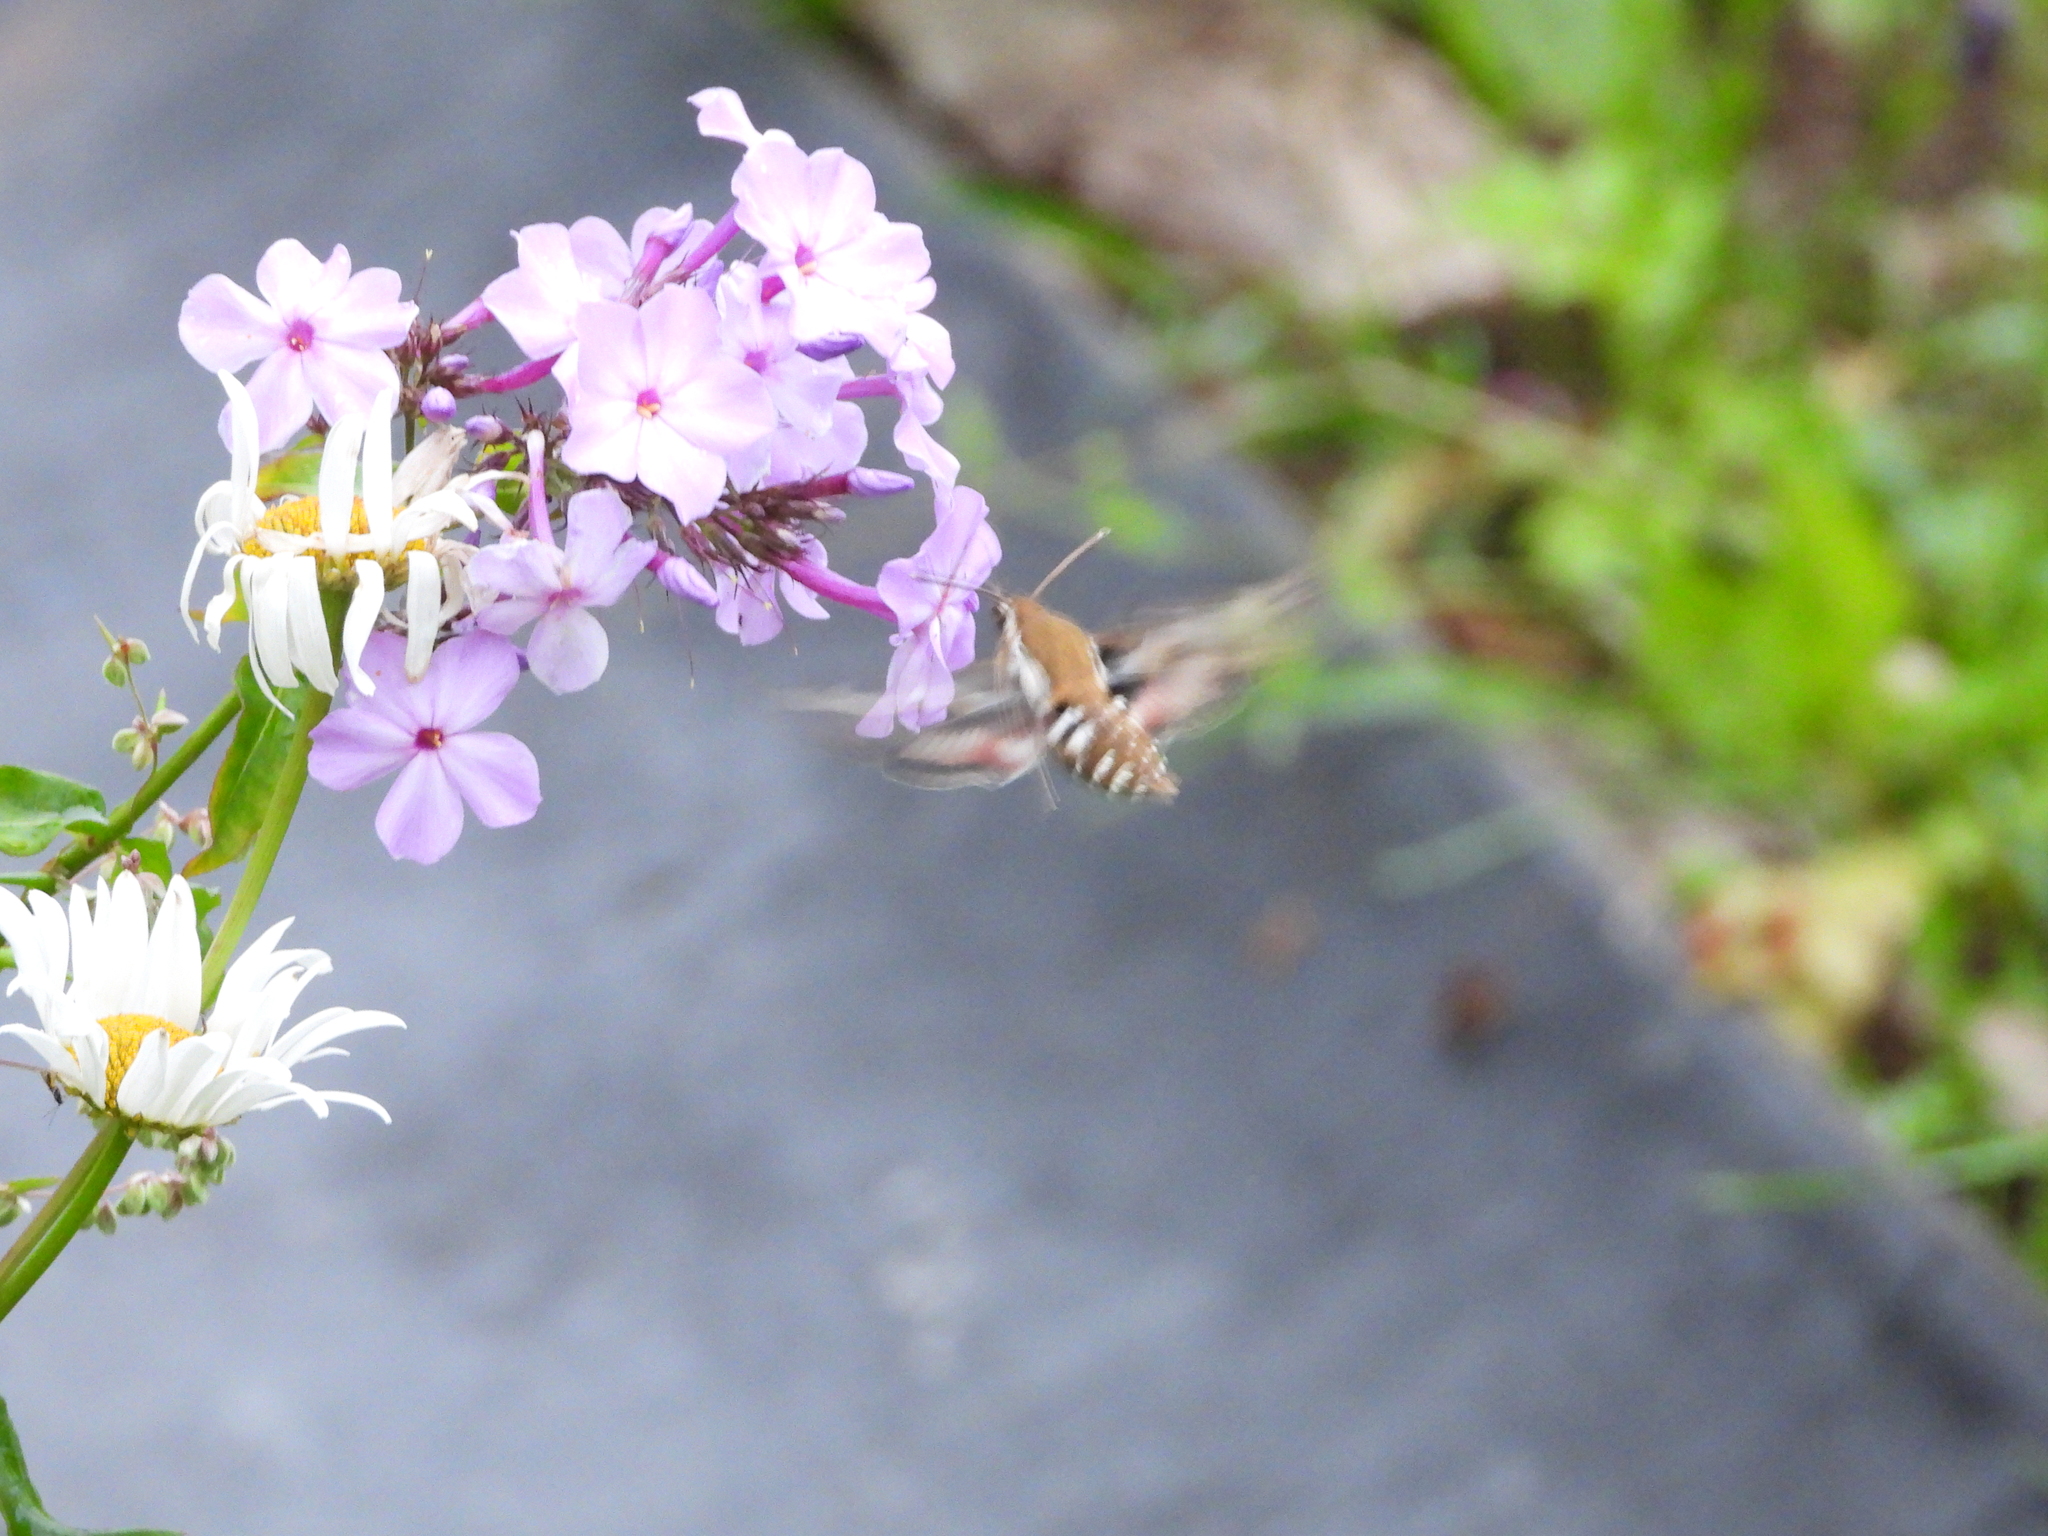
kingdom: Animalia
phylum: Arthropoda
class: Insecta
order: Lepidoptera
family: Sphingidae
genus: Hyles
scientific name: Hyles gallii
